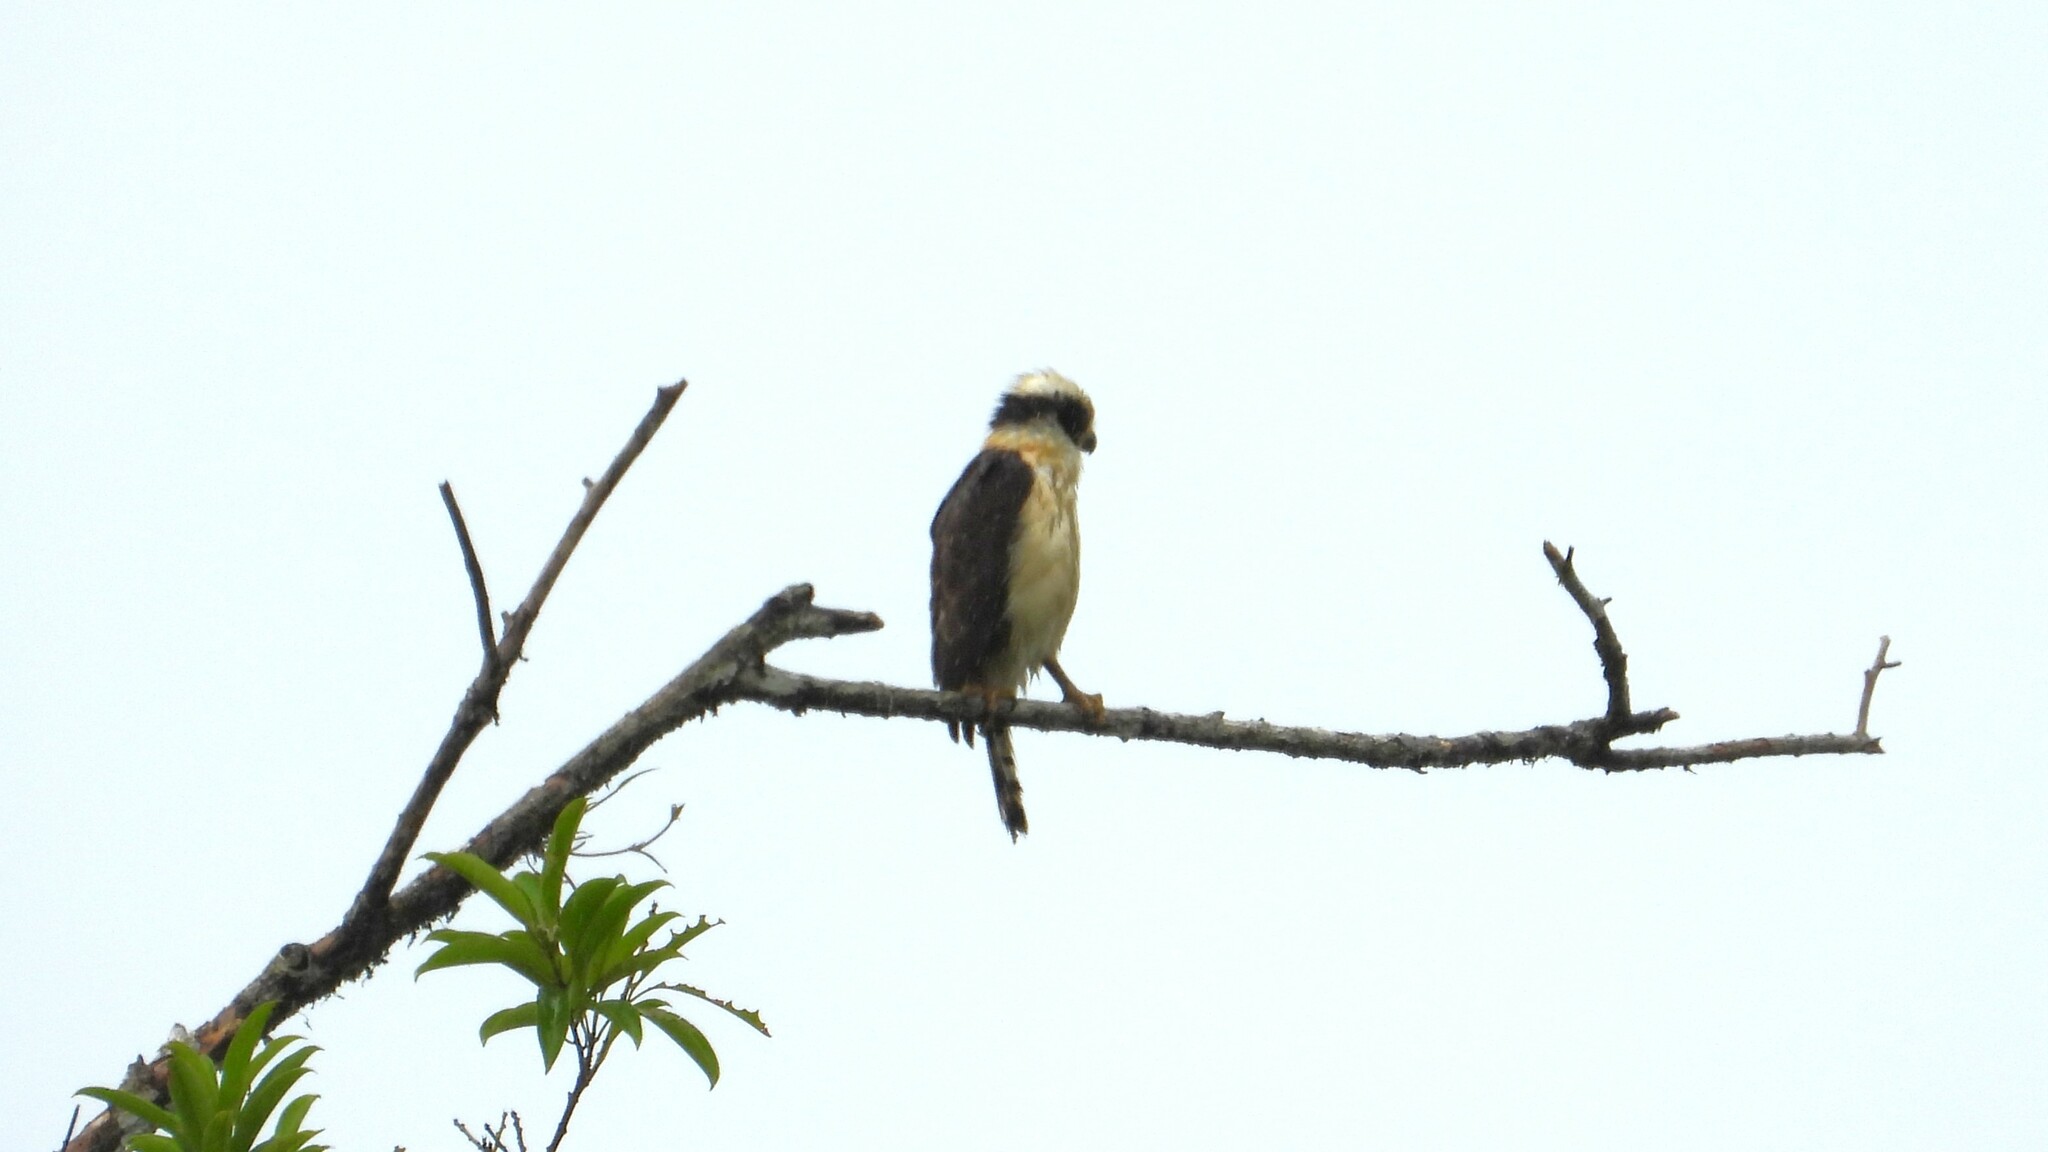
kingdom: Animalia
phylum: Chordata
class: Aves
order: Falconiformes
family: Falconidae
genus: Herpetotheres
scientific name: Herpetotheres cachinnans
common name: Laughing falcon
